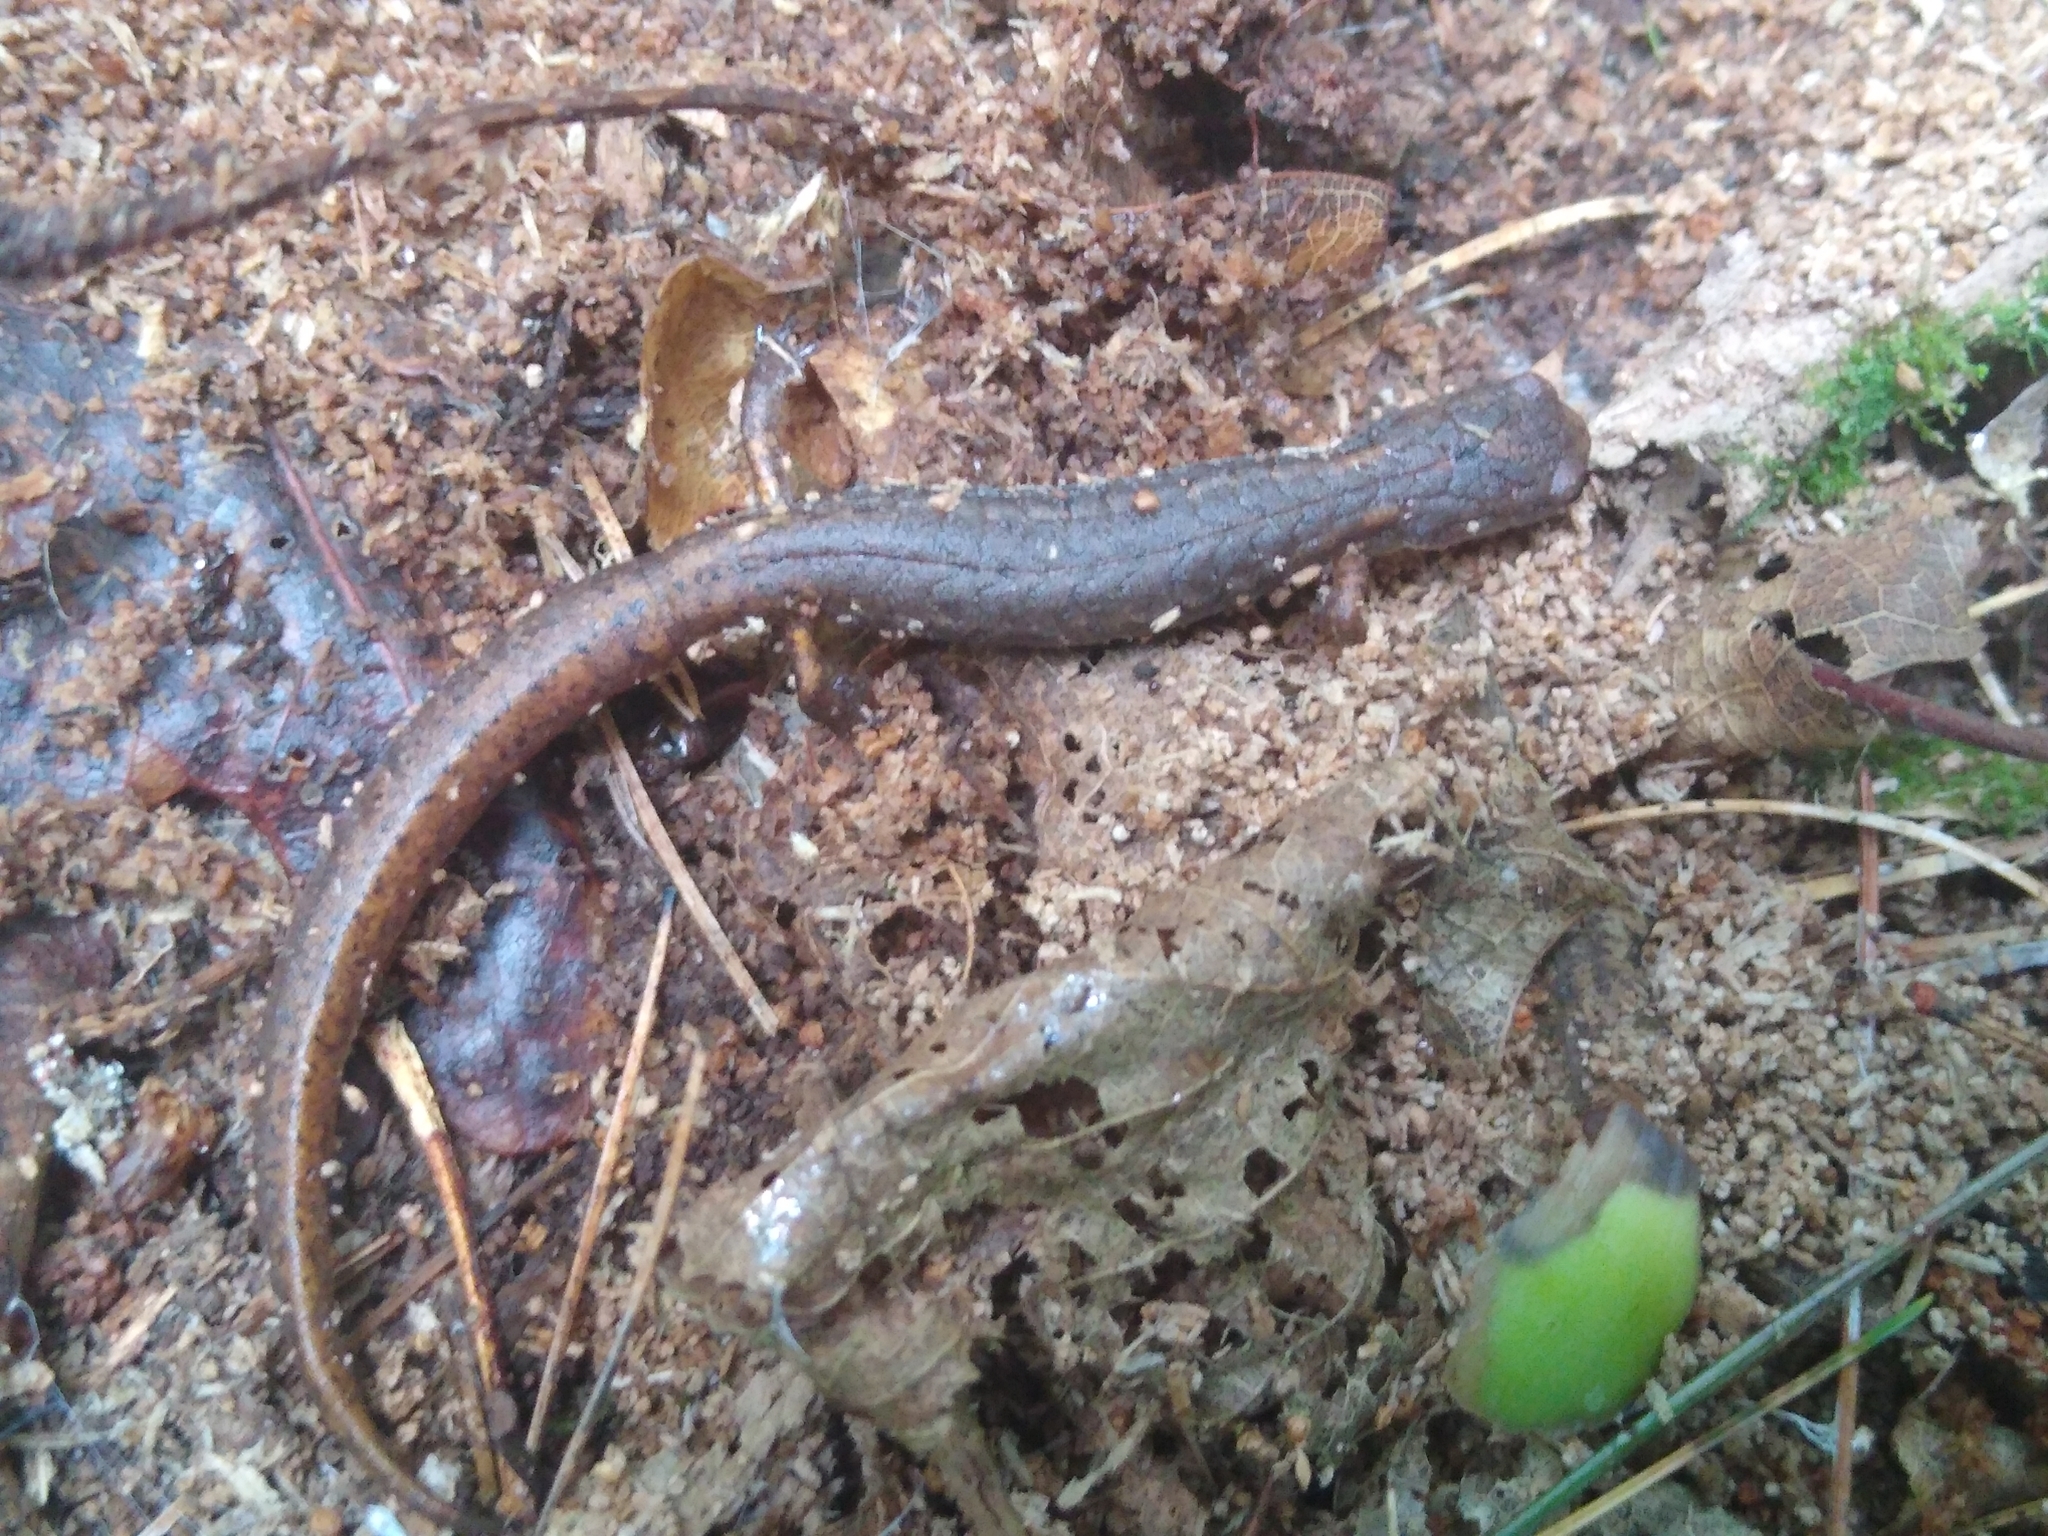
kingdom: Animalia
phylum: Chordata
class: Amphibia
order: Caudata
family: Plethodontidae
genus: Hemidactylium
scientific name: Hemidactylium scutatum
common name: Four-toed salamander
